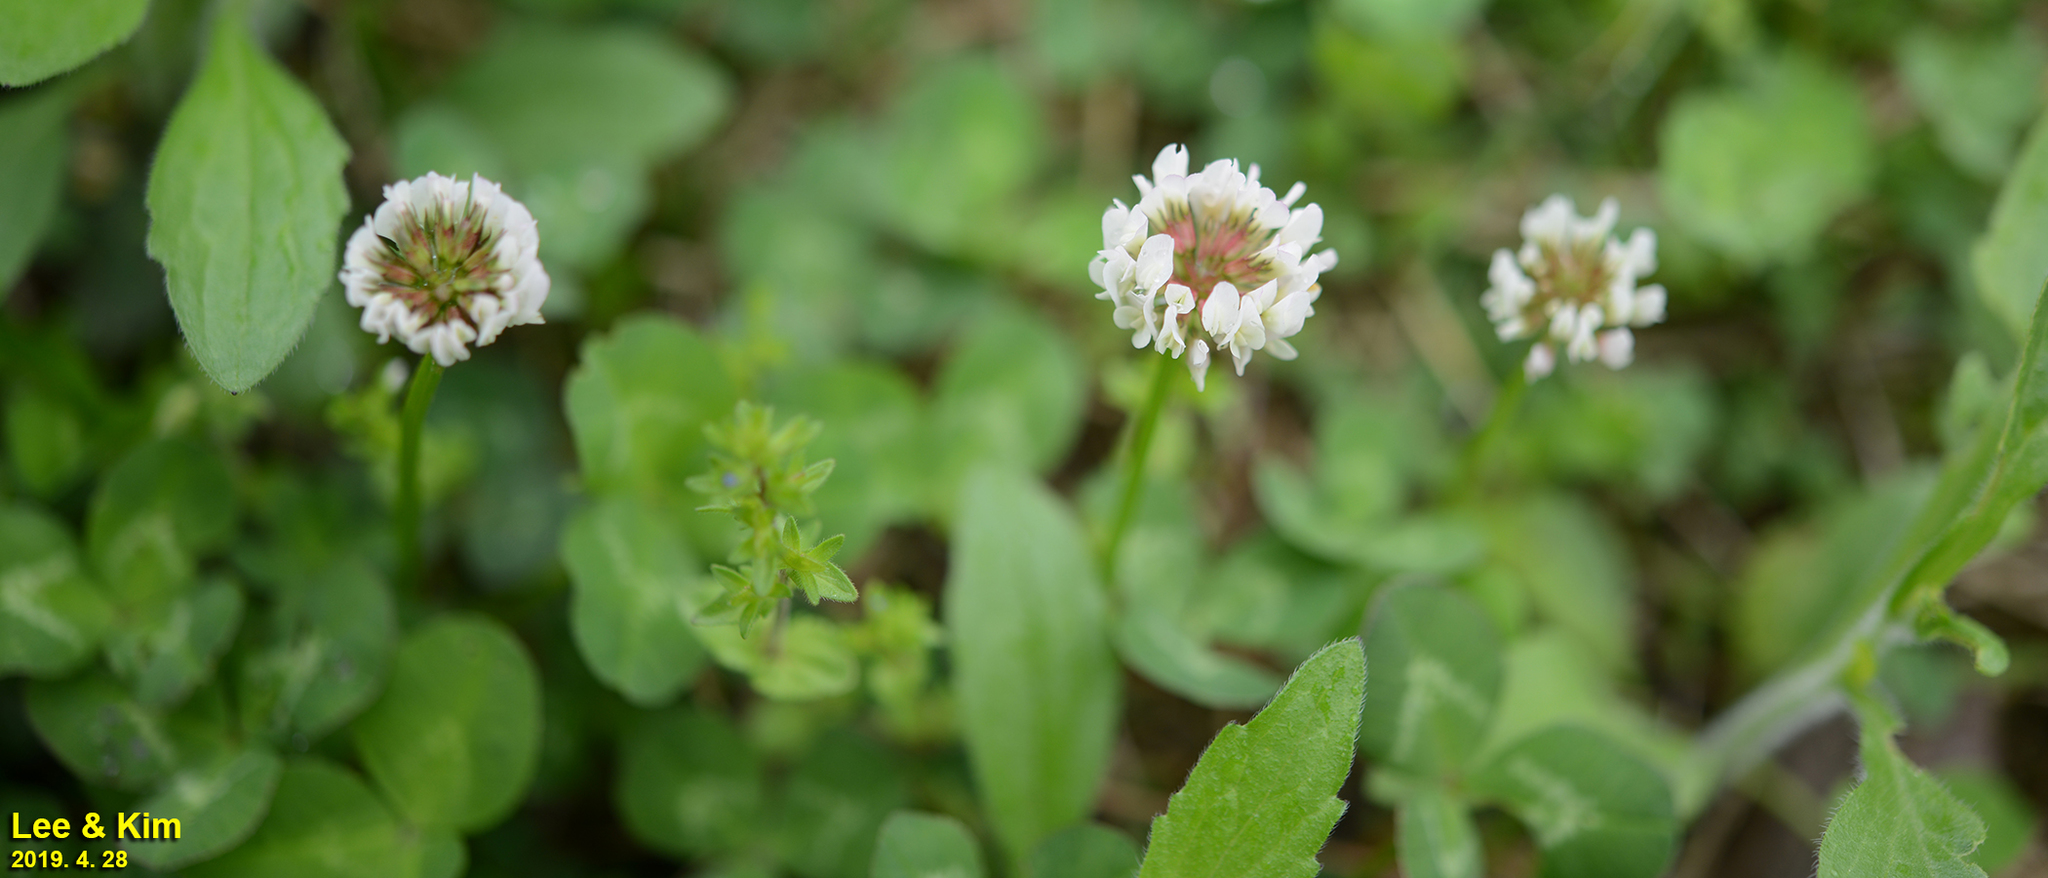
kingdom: Plantae
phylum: Tracheophyta
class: Magnoliopsida
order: Fabales
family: Fabaceae
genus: Trifolium
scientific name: Trifolium repens
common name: White clover
